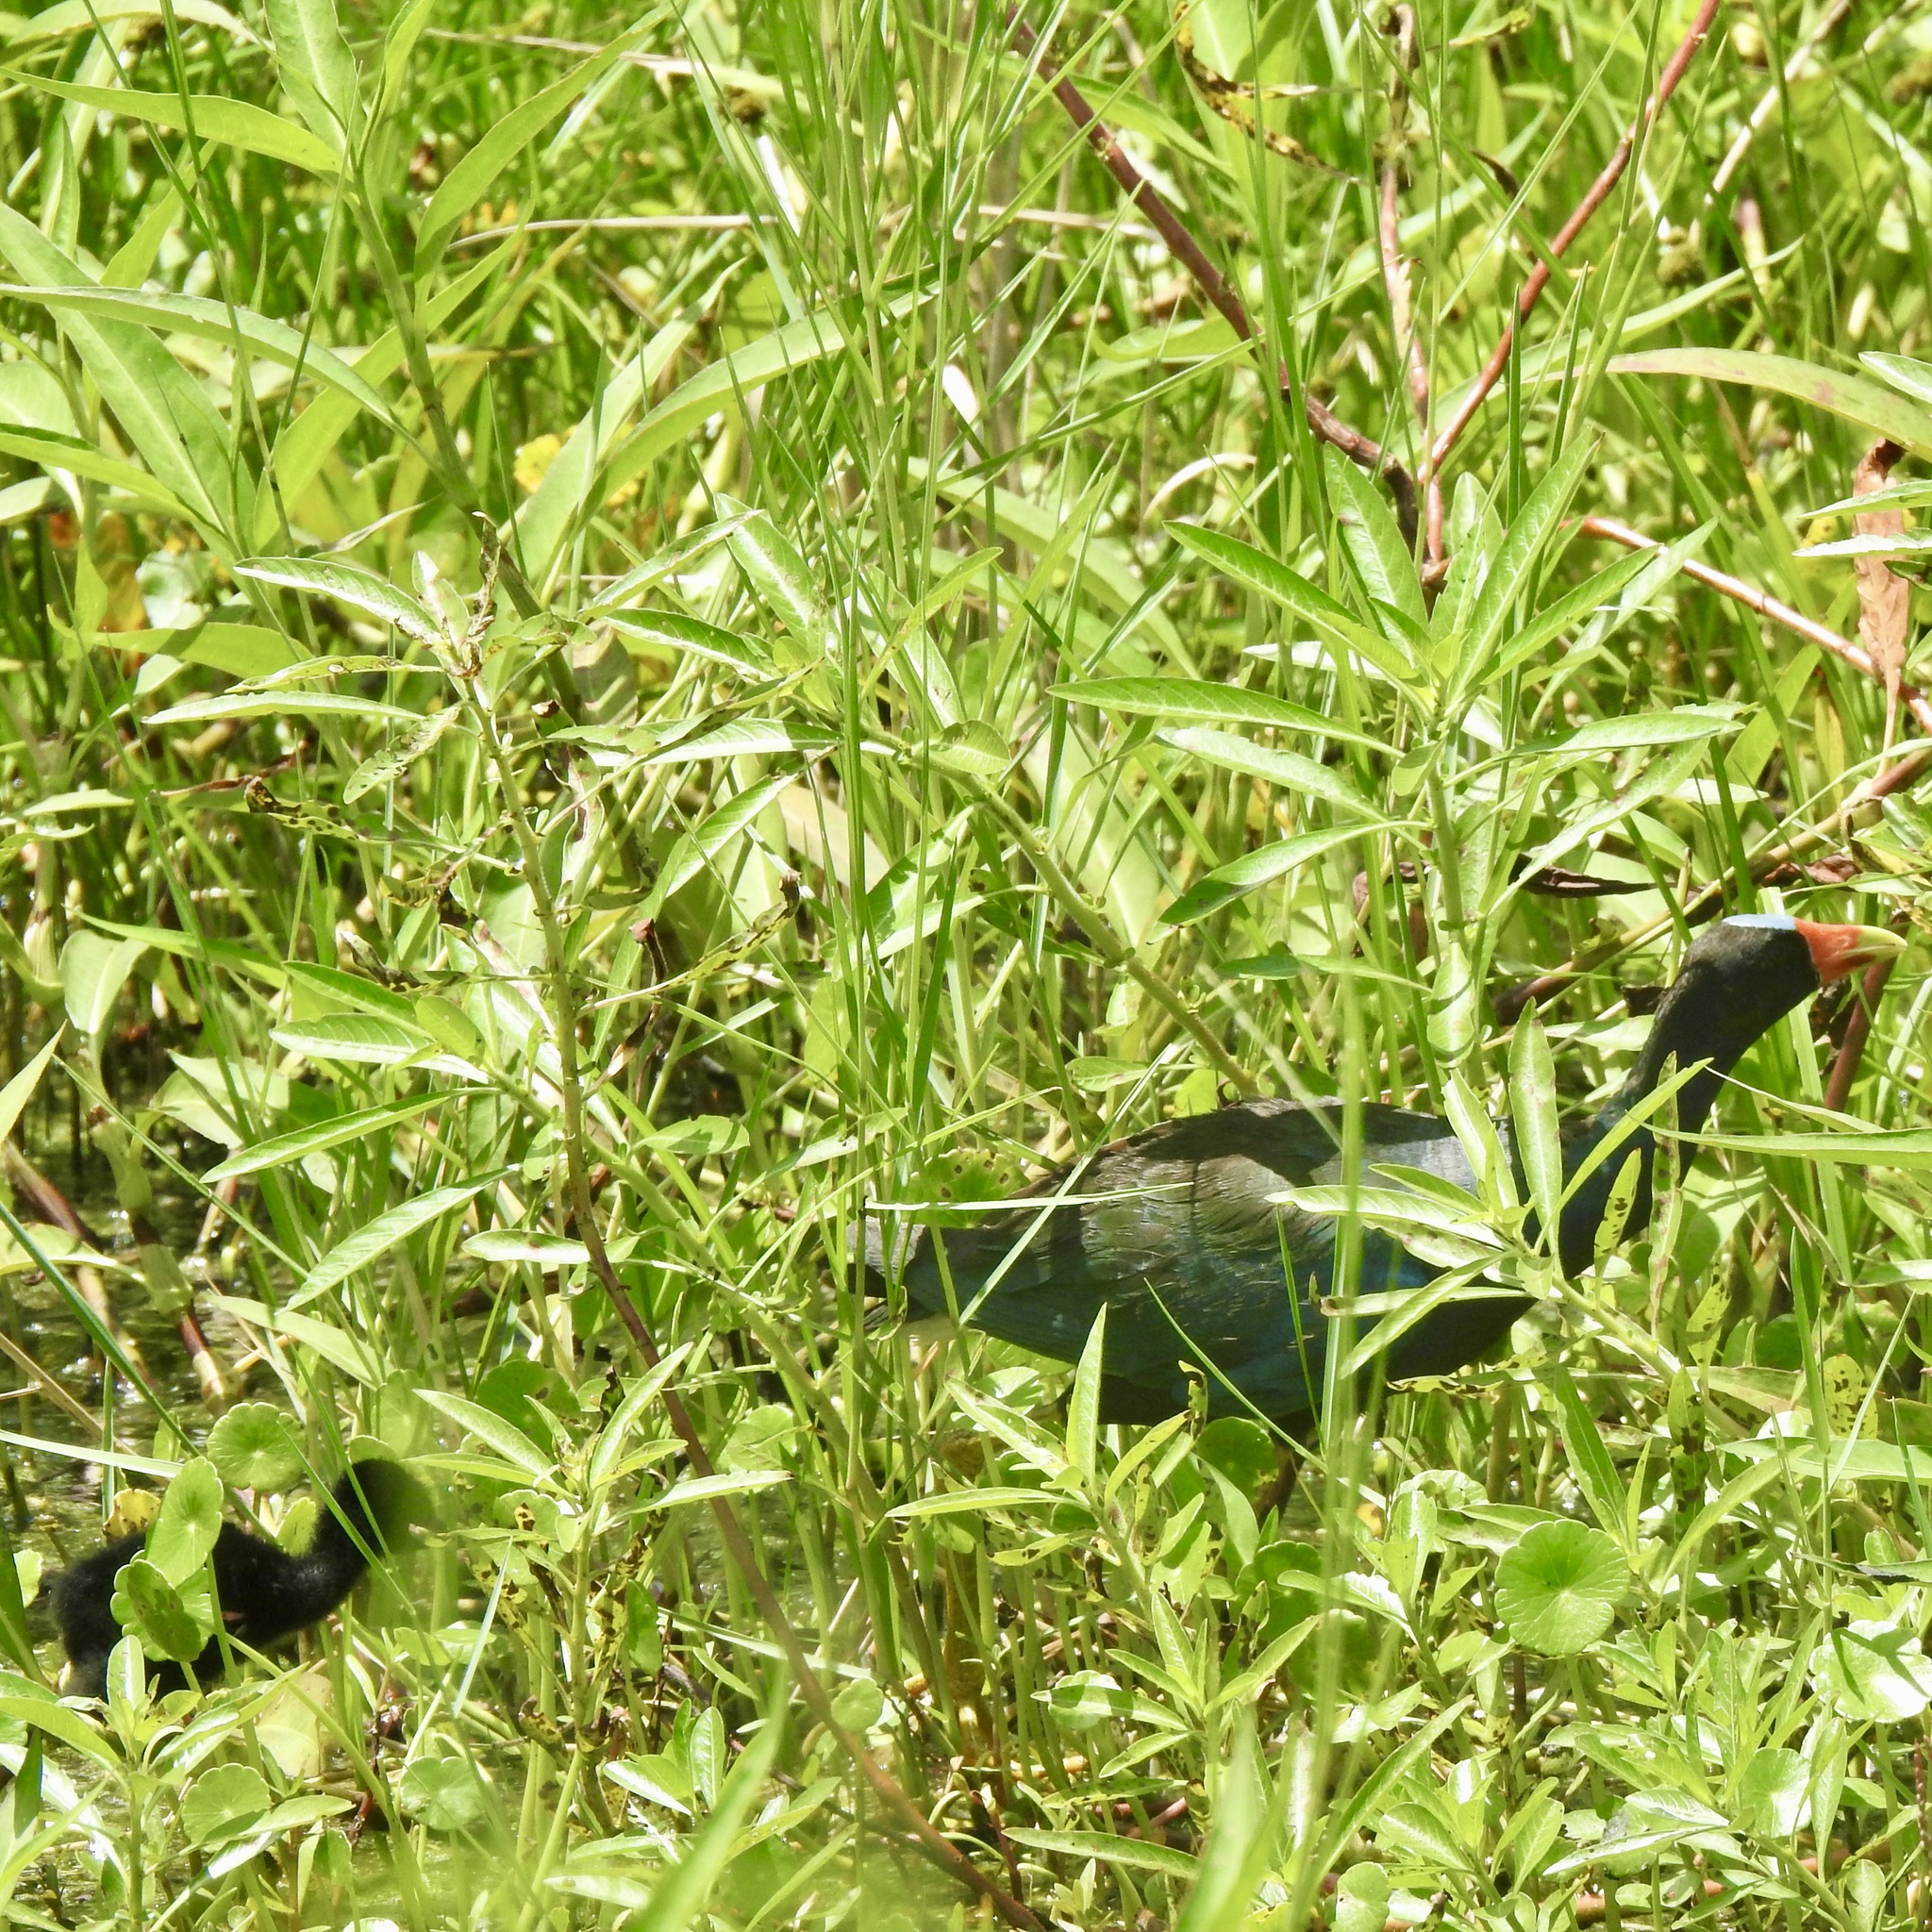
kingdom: Animalia
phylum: Chordata
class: Aves
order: Gruiformes
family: Rallidae
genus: Porphyrio
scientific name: Porphyrio martinica
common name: Purple gallinule
